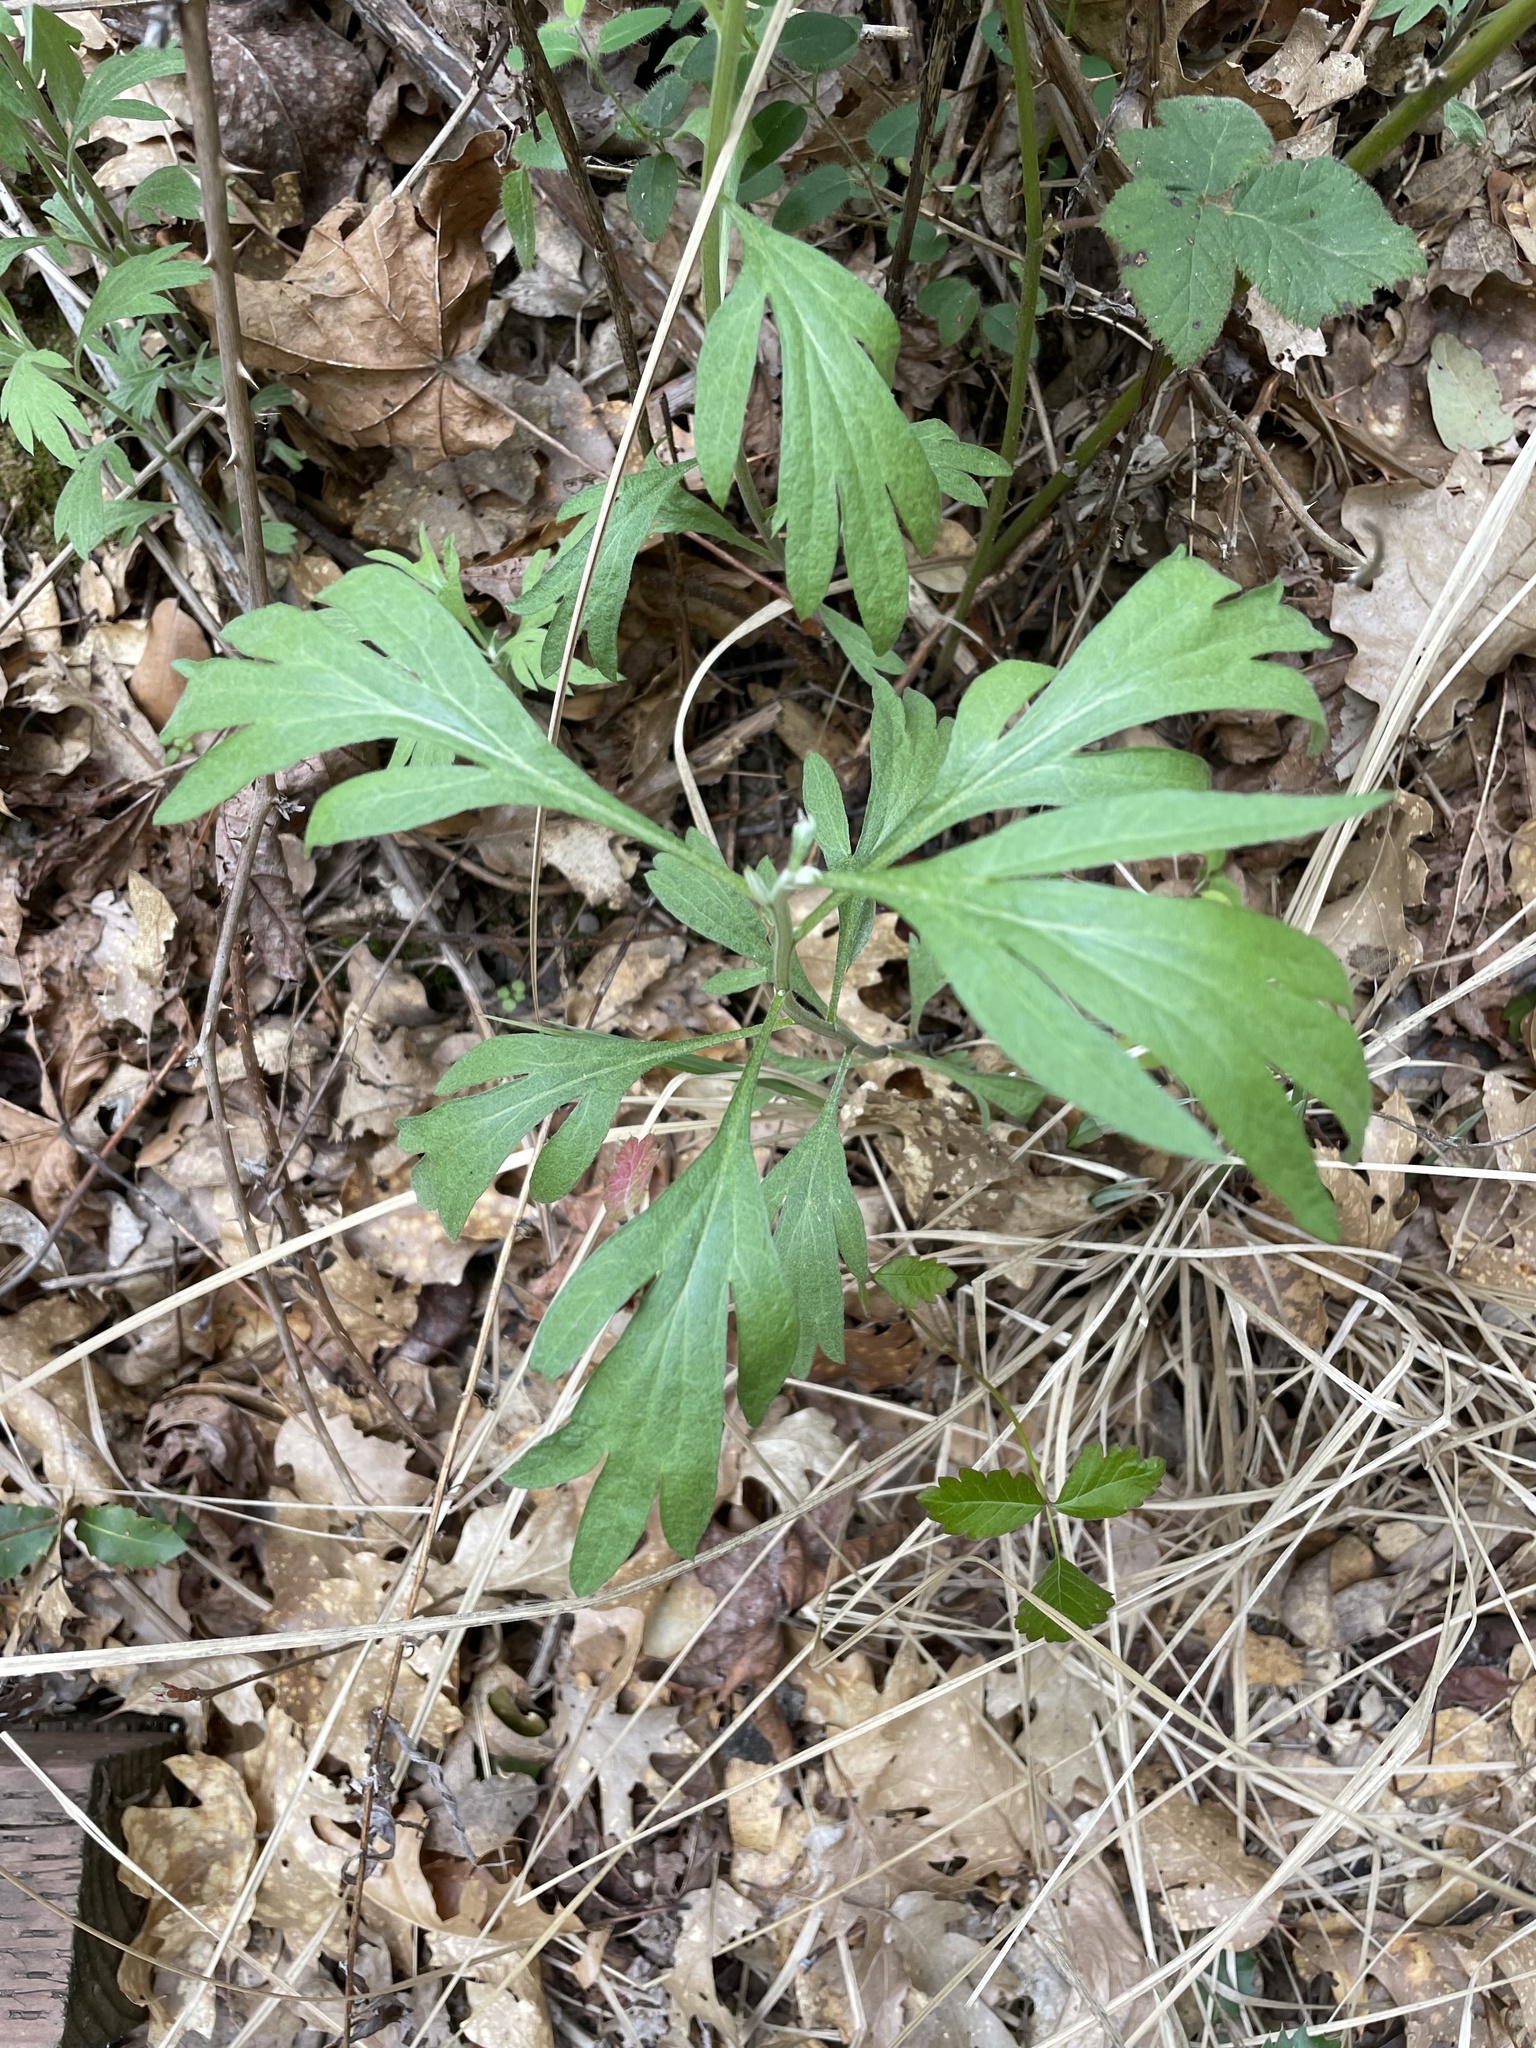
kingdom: Plantae
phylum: Tracheophyta
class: Magnoliopsida
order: Asterales
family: Asteraceae
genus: Artemisia
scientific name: Artemisia douglasiana
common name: Northwest mugwort
